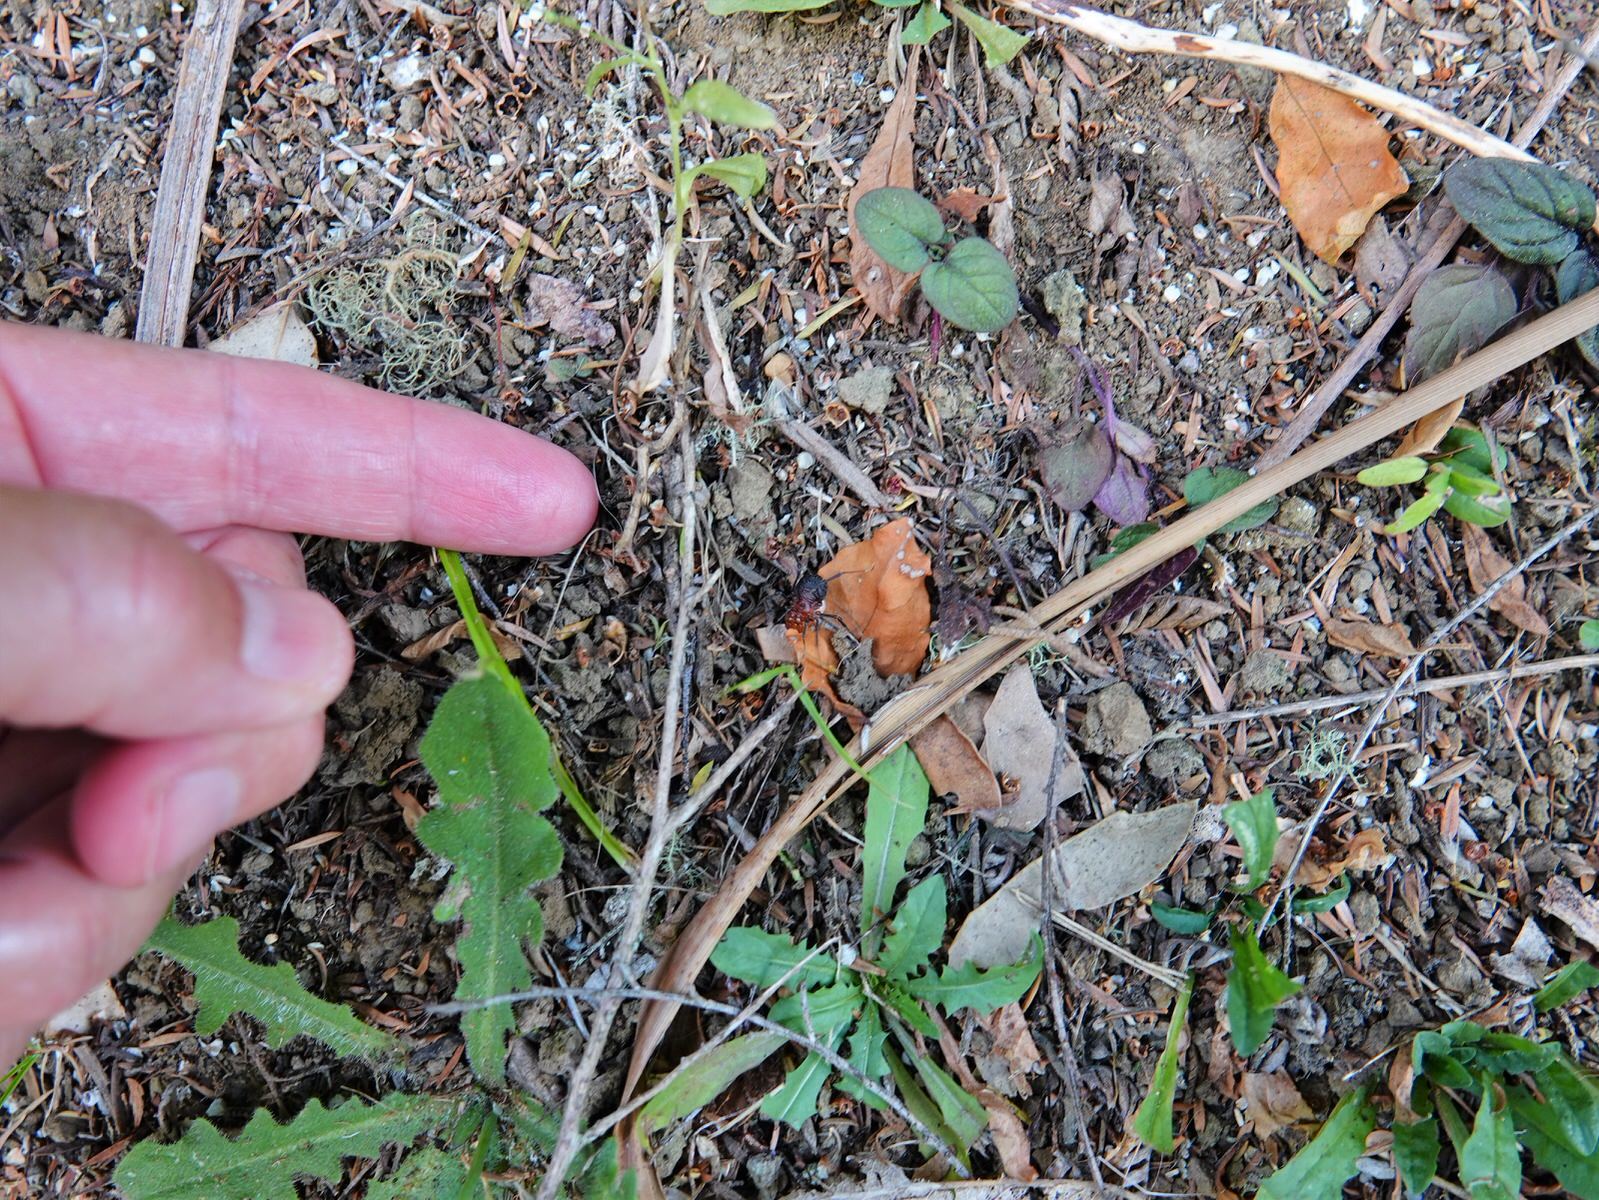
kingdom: Animalia
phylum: Arthropoda
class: Arachnida
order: Opiliones
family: Triaenonychidae
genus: Sorensenella
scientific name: Sorensenella prehensor
